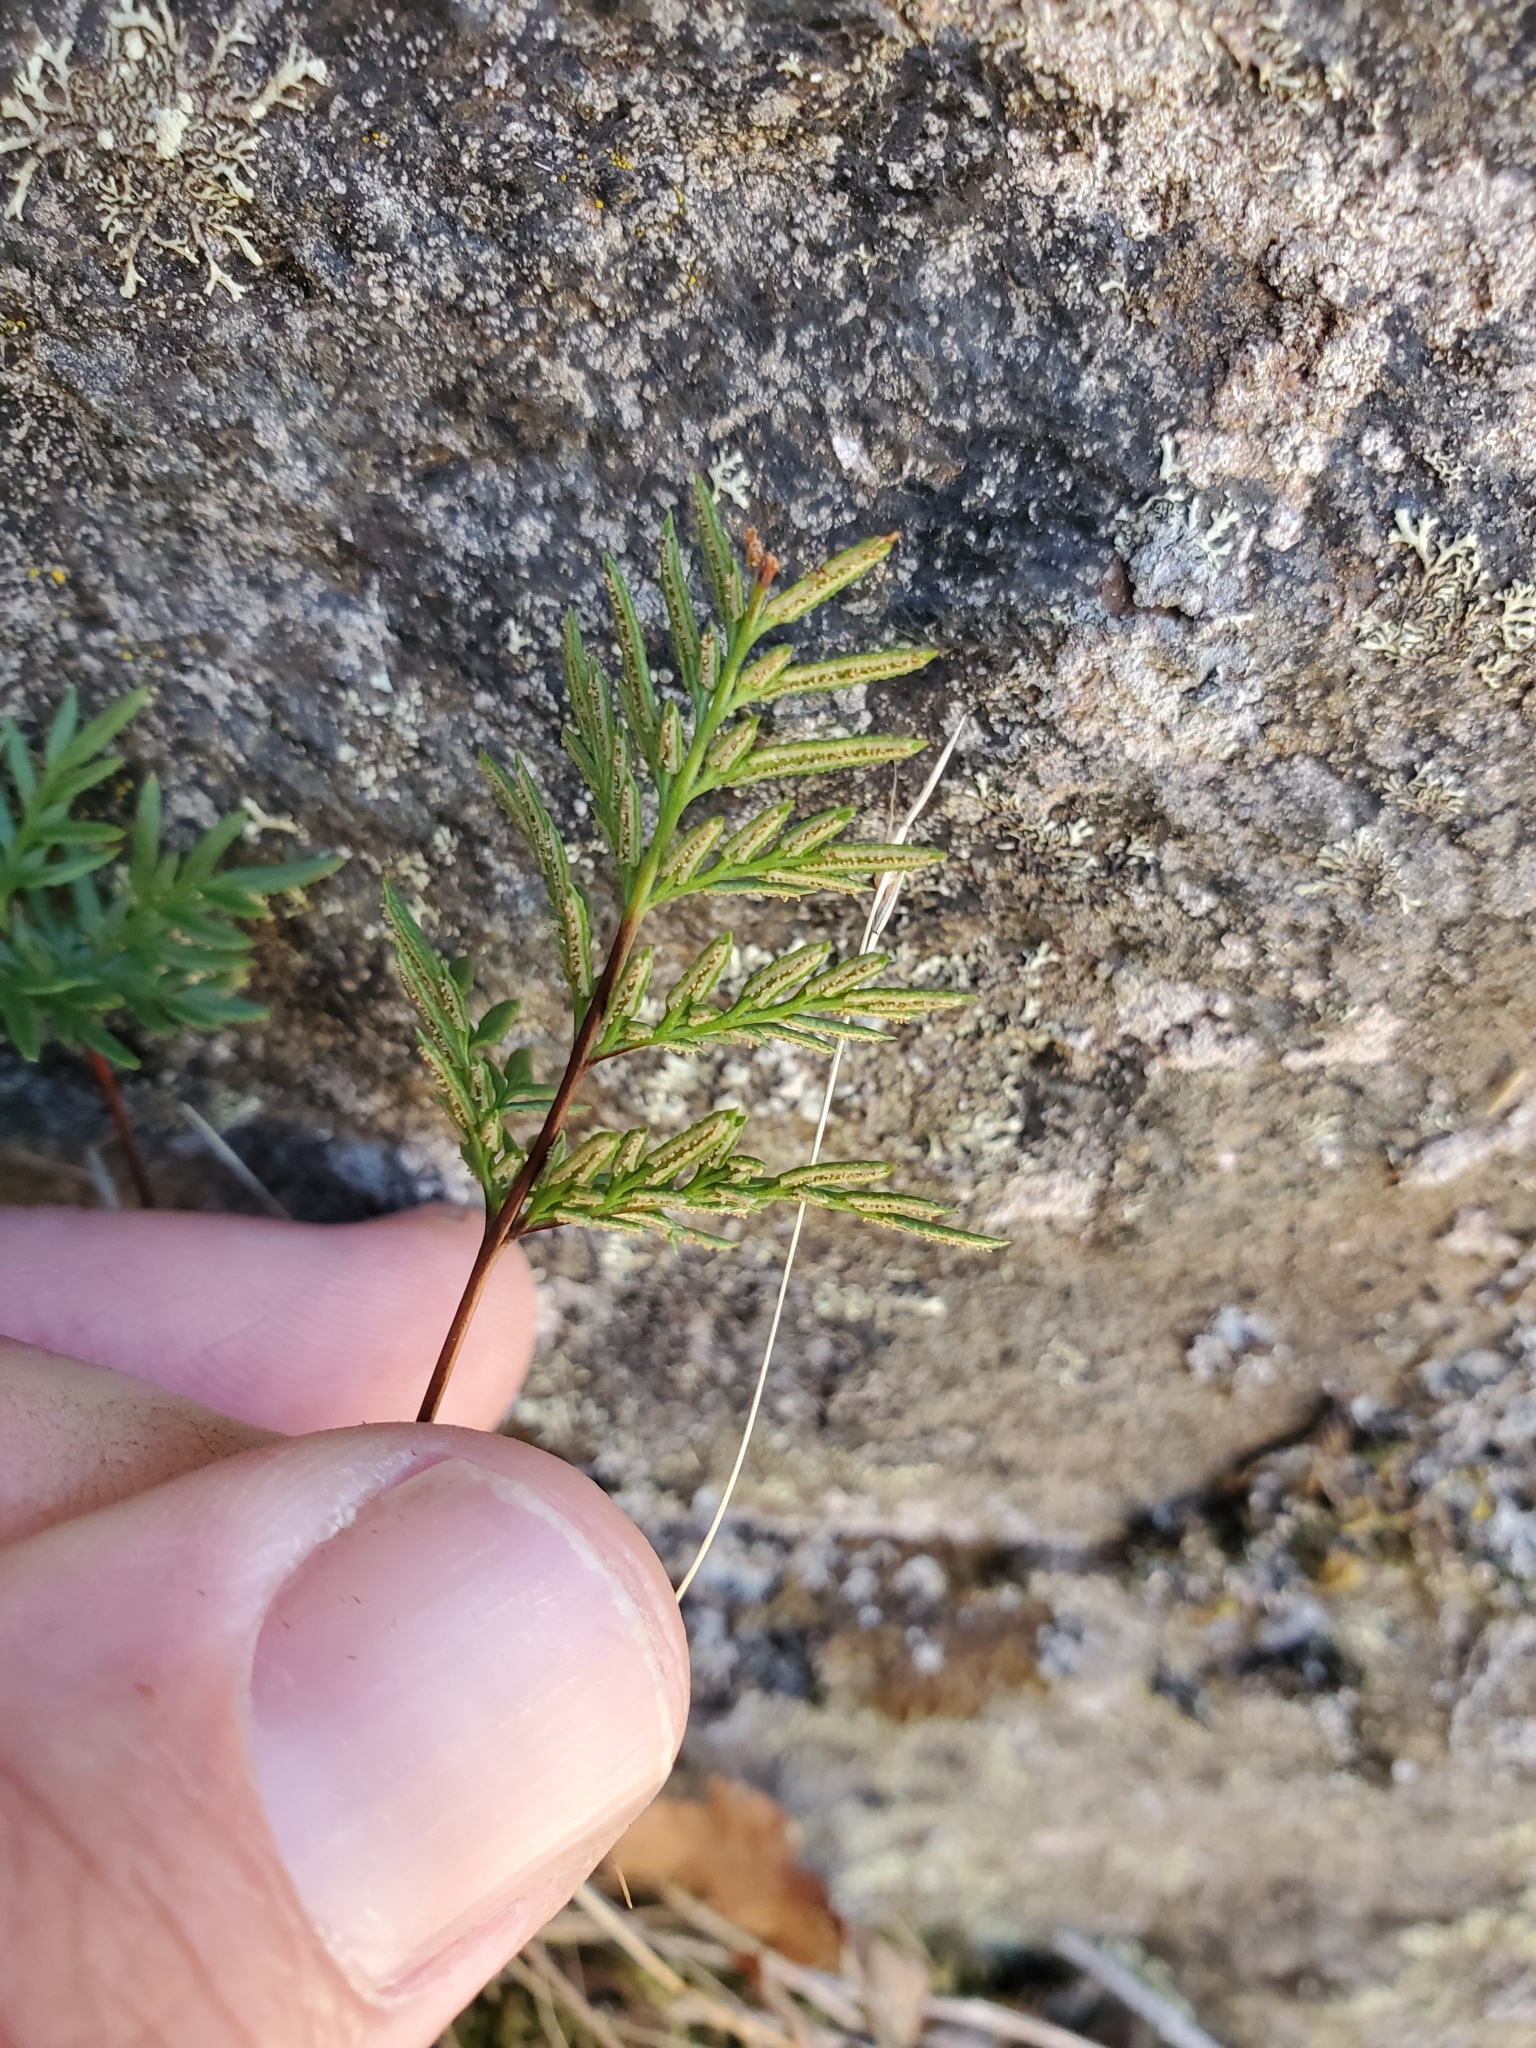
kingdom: Plantae
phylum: Tracheophyta
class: Polypodiopsida
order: Polypodiales
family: Pteridaceae
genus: Aspidotis
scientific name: Aspidotis densa
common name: Indian's dream
